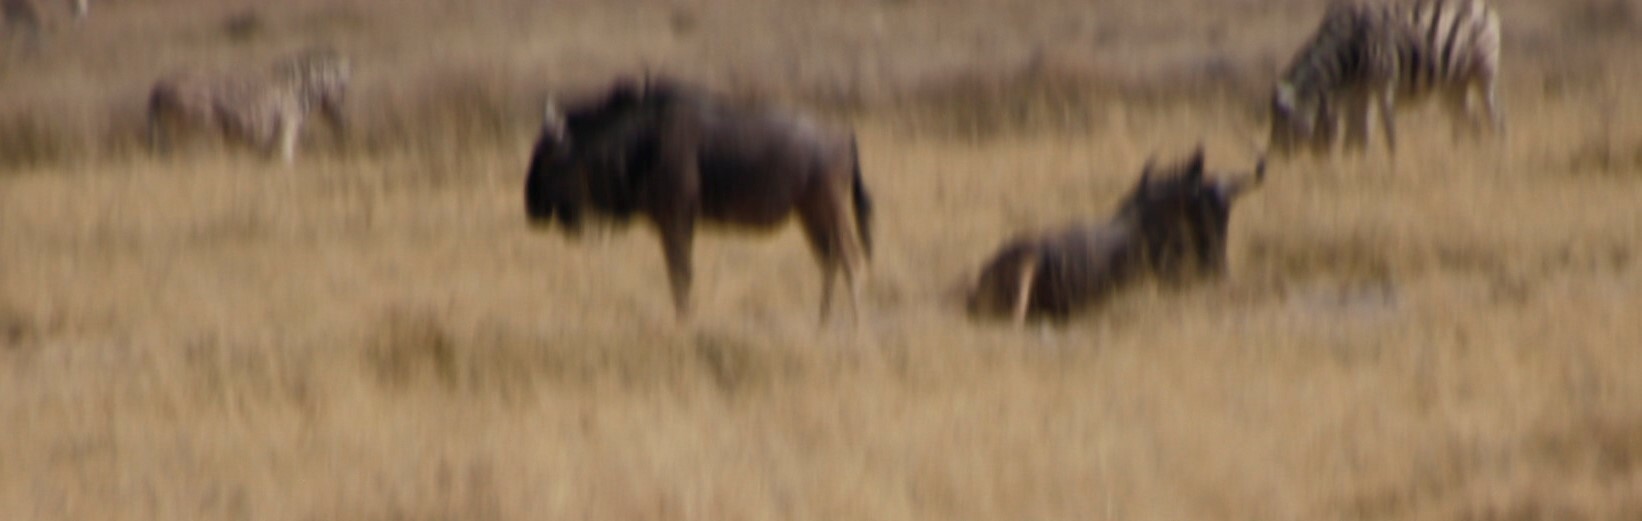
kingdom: Animalia
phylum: Chordata
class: Mammalia
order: Artiodactyla
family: Bovidae
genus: Connochaetes
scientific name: Connochaetes taurinus
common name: Blue wildebeest
